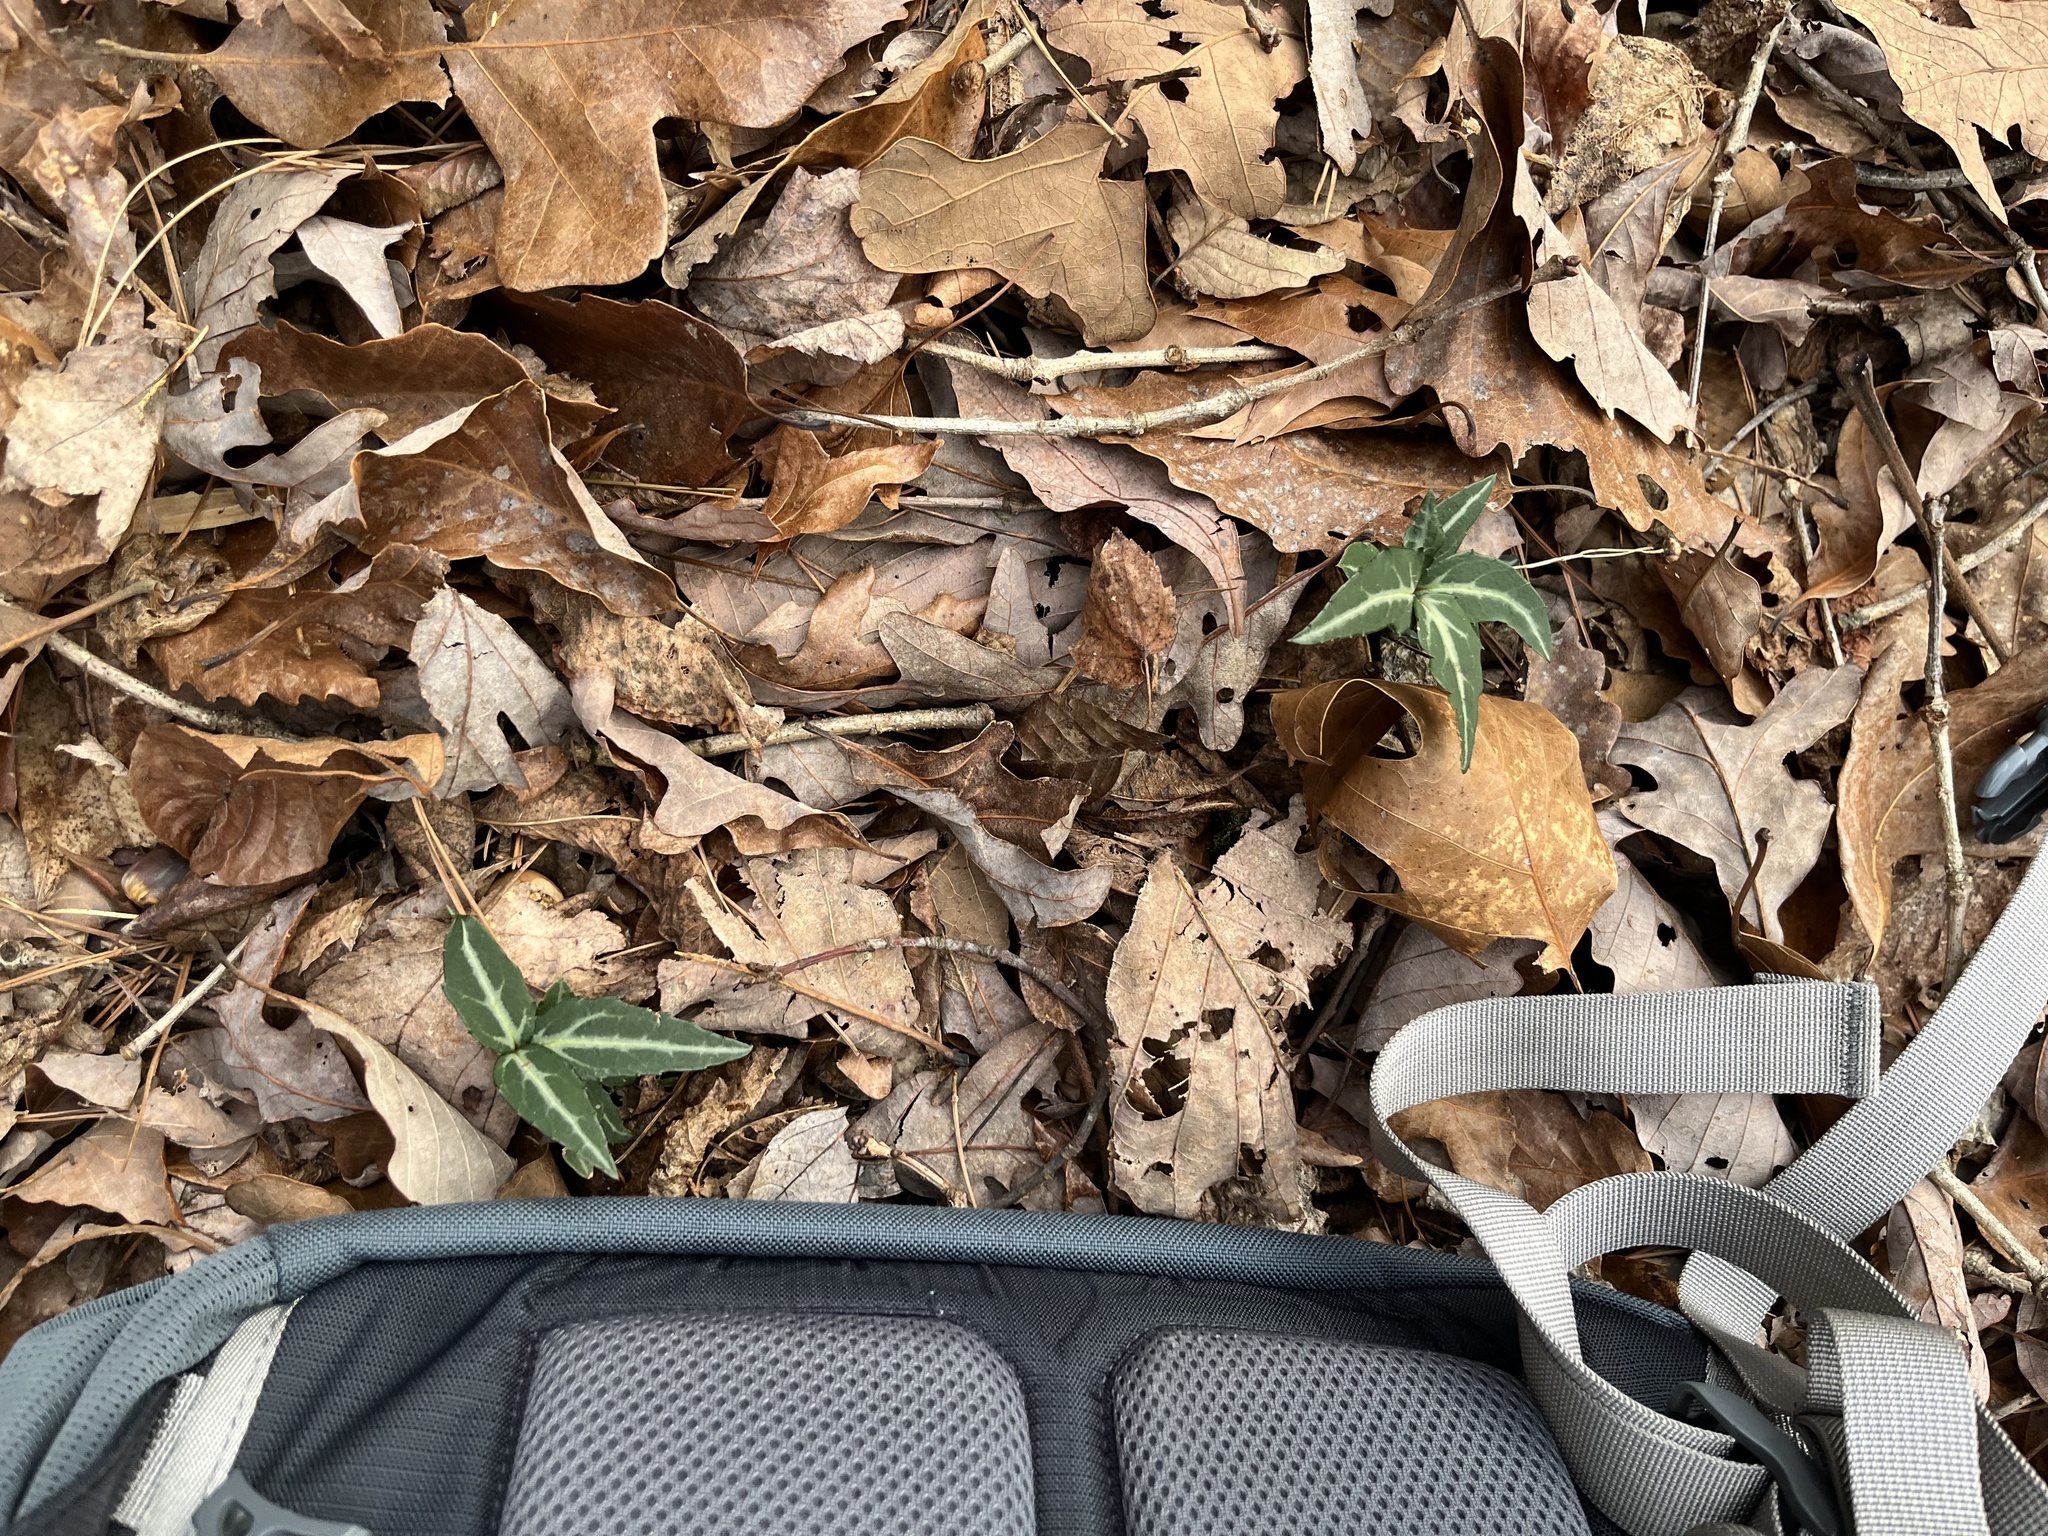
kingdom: Plantae
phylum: Tracheophyta
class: Magnoliopsida
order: Ericales
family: Ericaceae
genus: Chimaphila
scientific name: Chimaphila maculata
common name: Spotted pipsissewa
